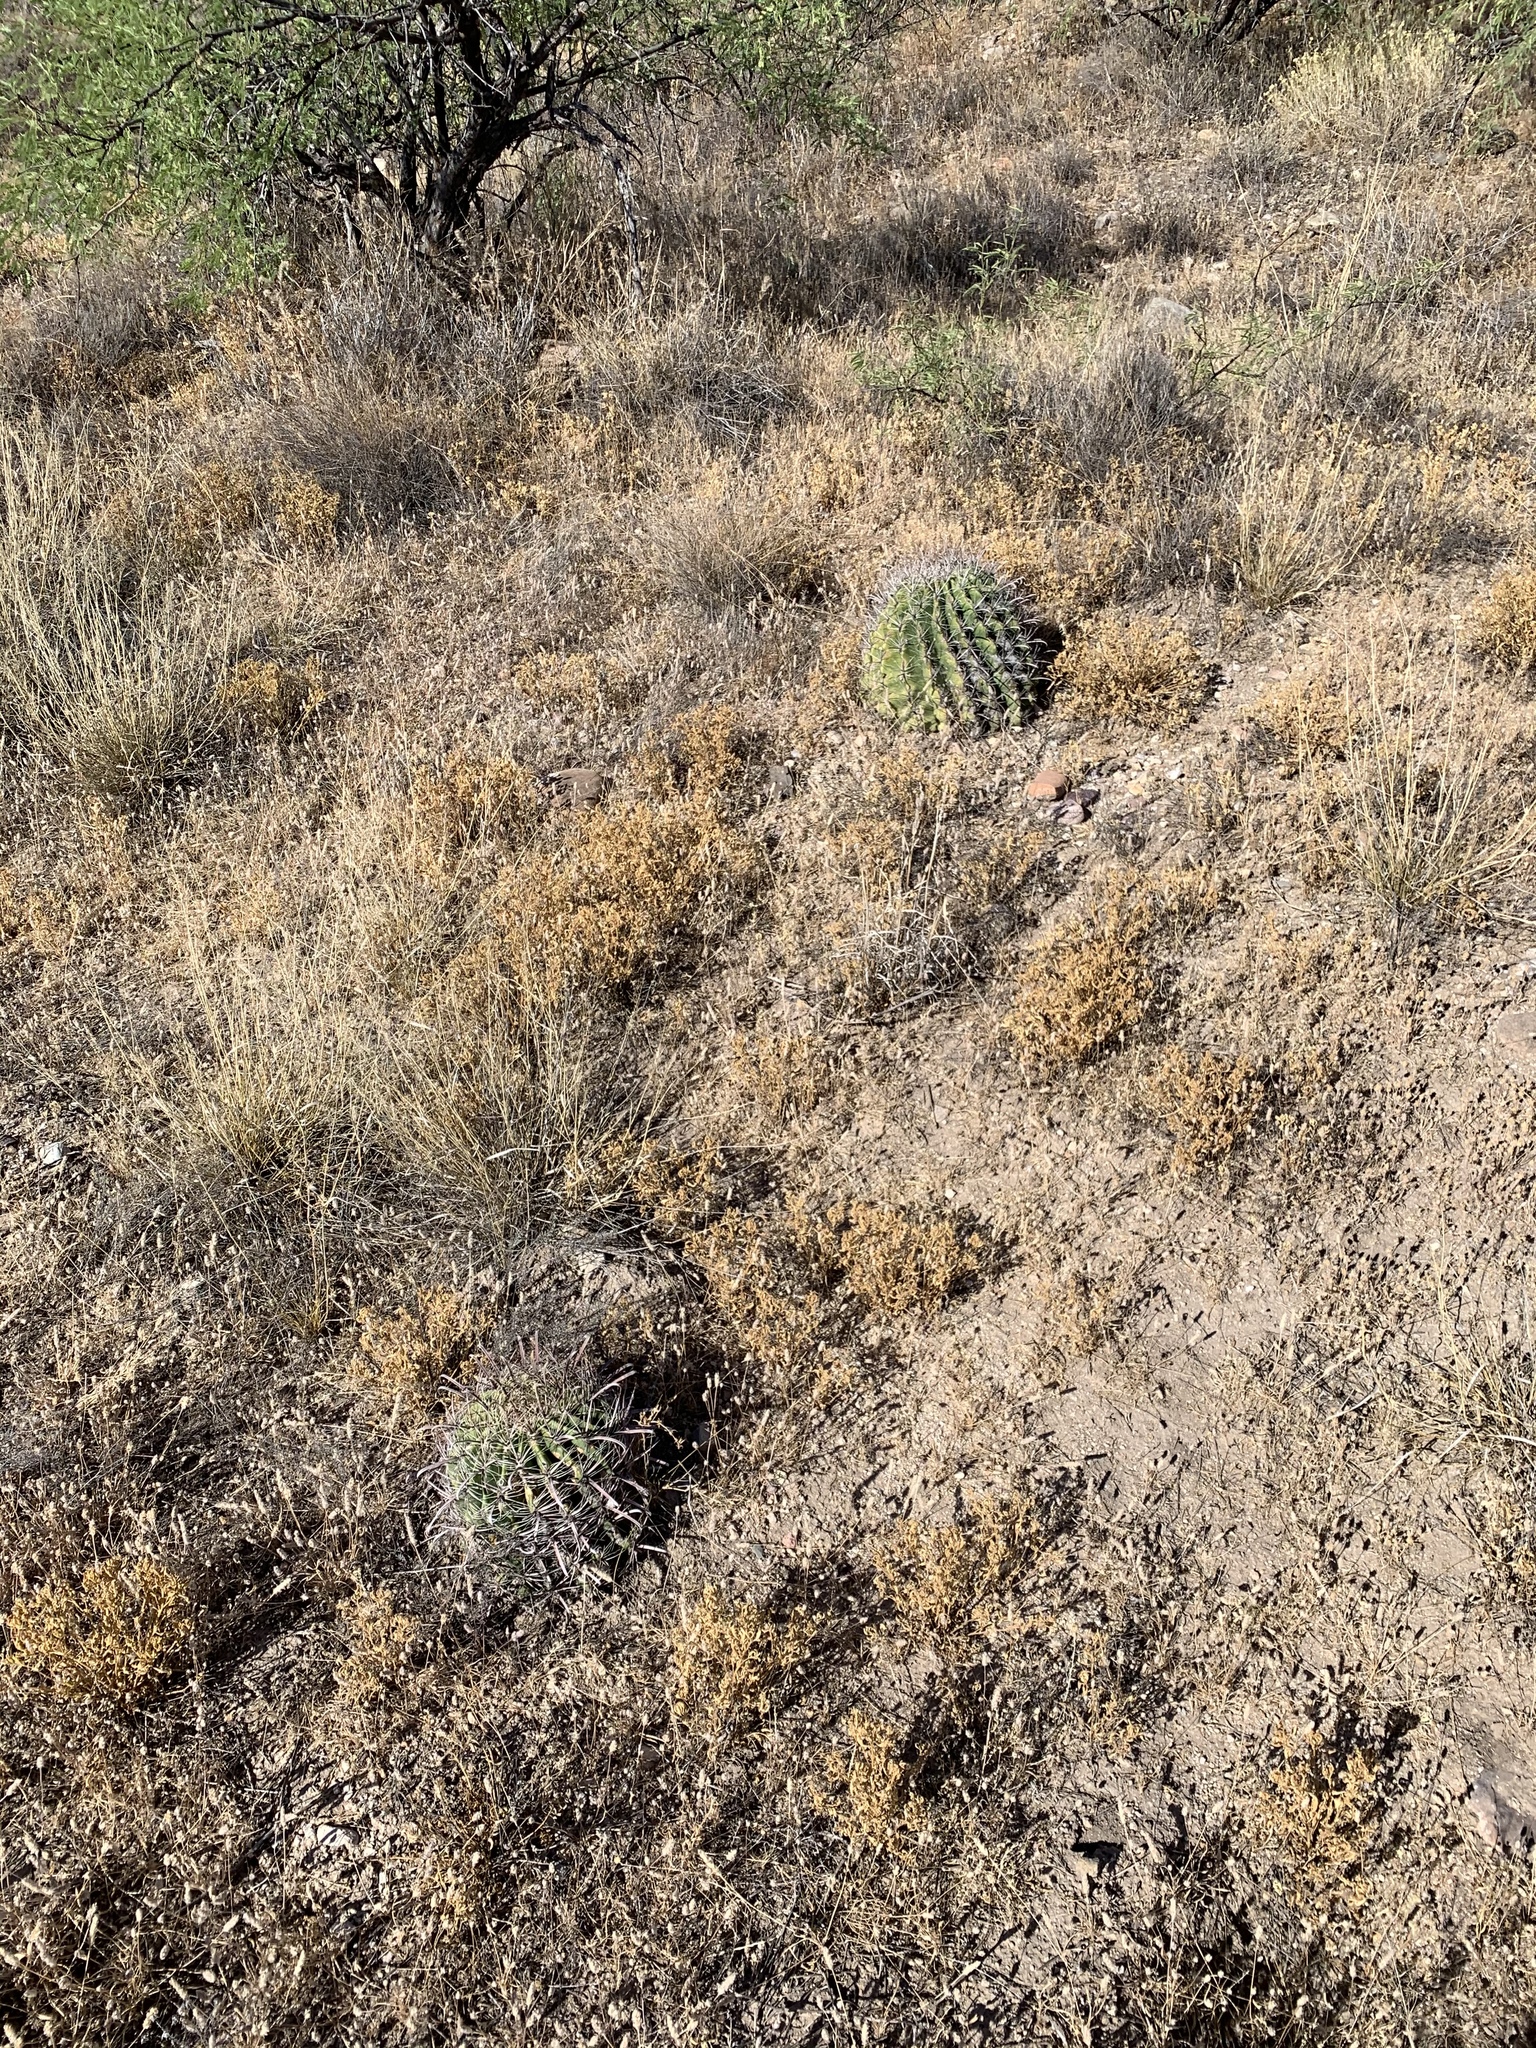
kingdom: Plantae
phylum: Tracheophyta
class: Magnoliopsida
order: Caryophyllales
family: Cactaceae
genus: Ferocactus
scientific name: Ferocactus wislizeni
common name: Candy barrel cactus
